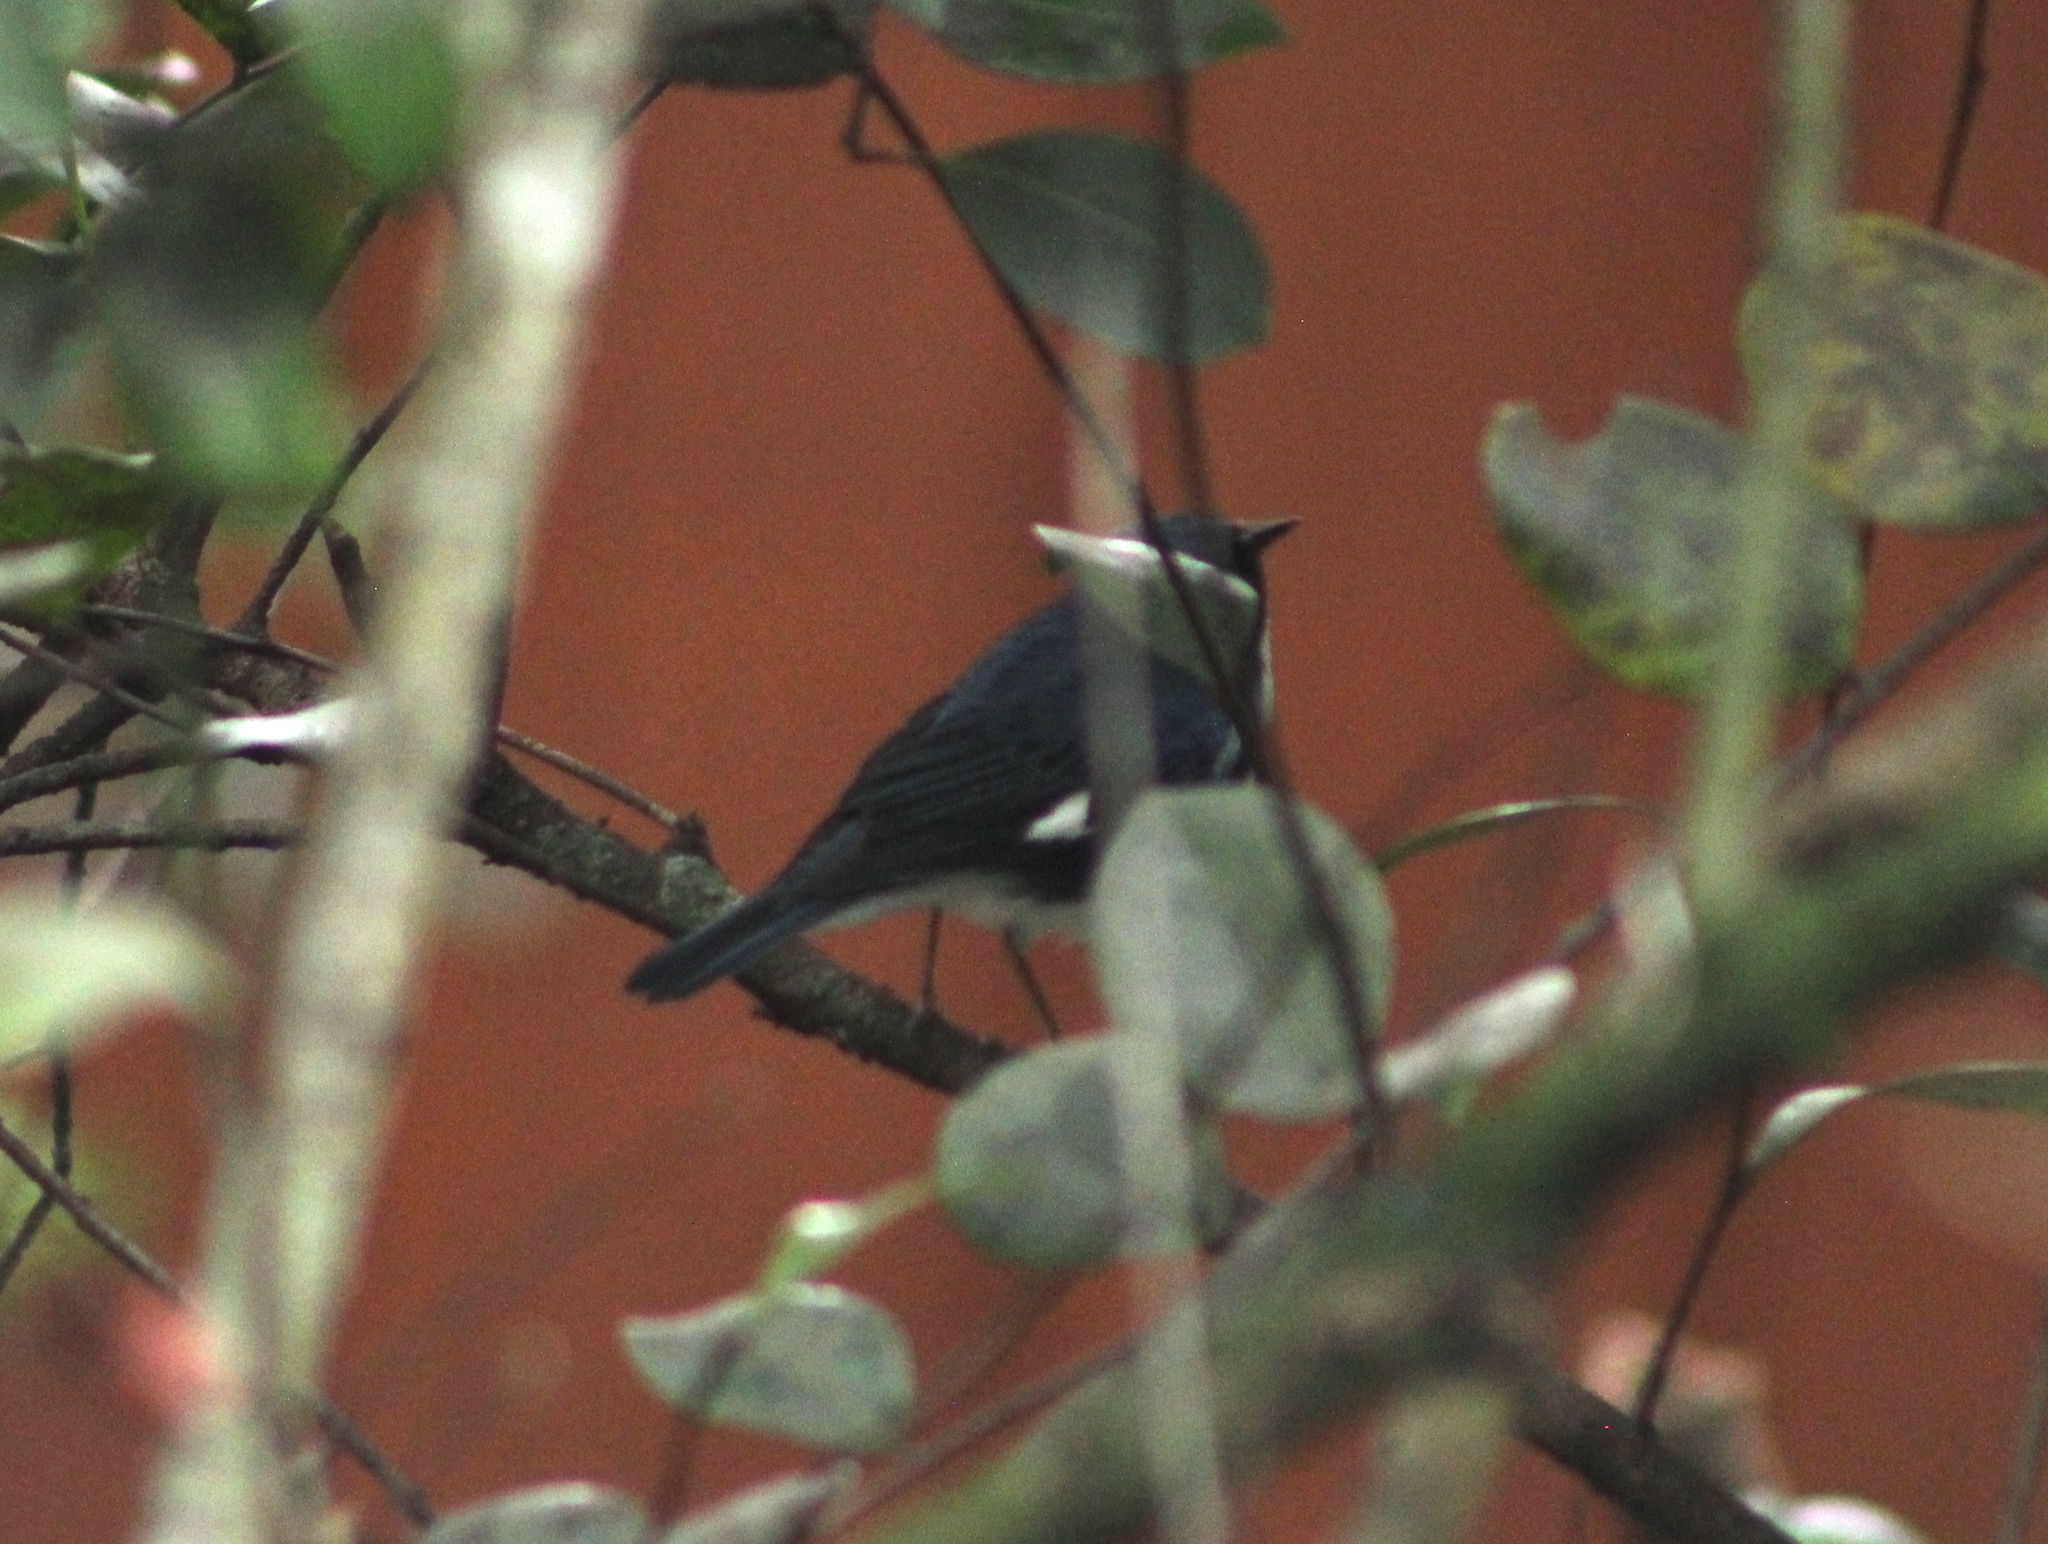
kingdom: Animalia
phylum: Chordata
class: Aves
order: Passeriformes
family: Parulidae
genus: Setophaga
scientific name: Setophaga caerulescens
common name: Black-throated blue warbler
